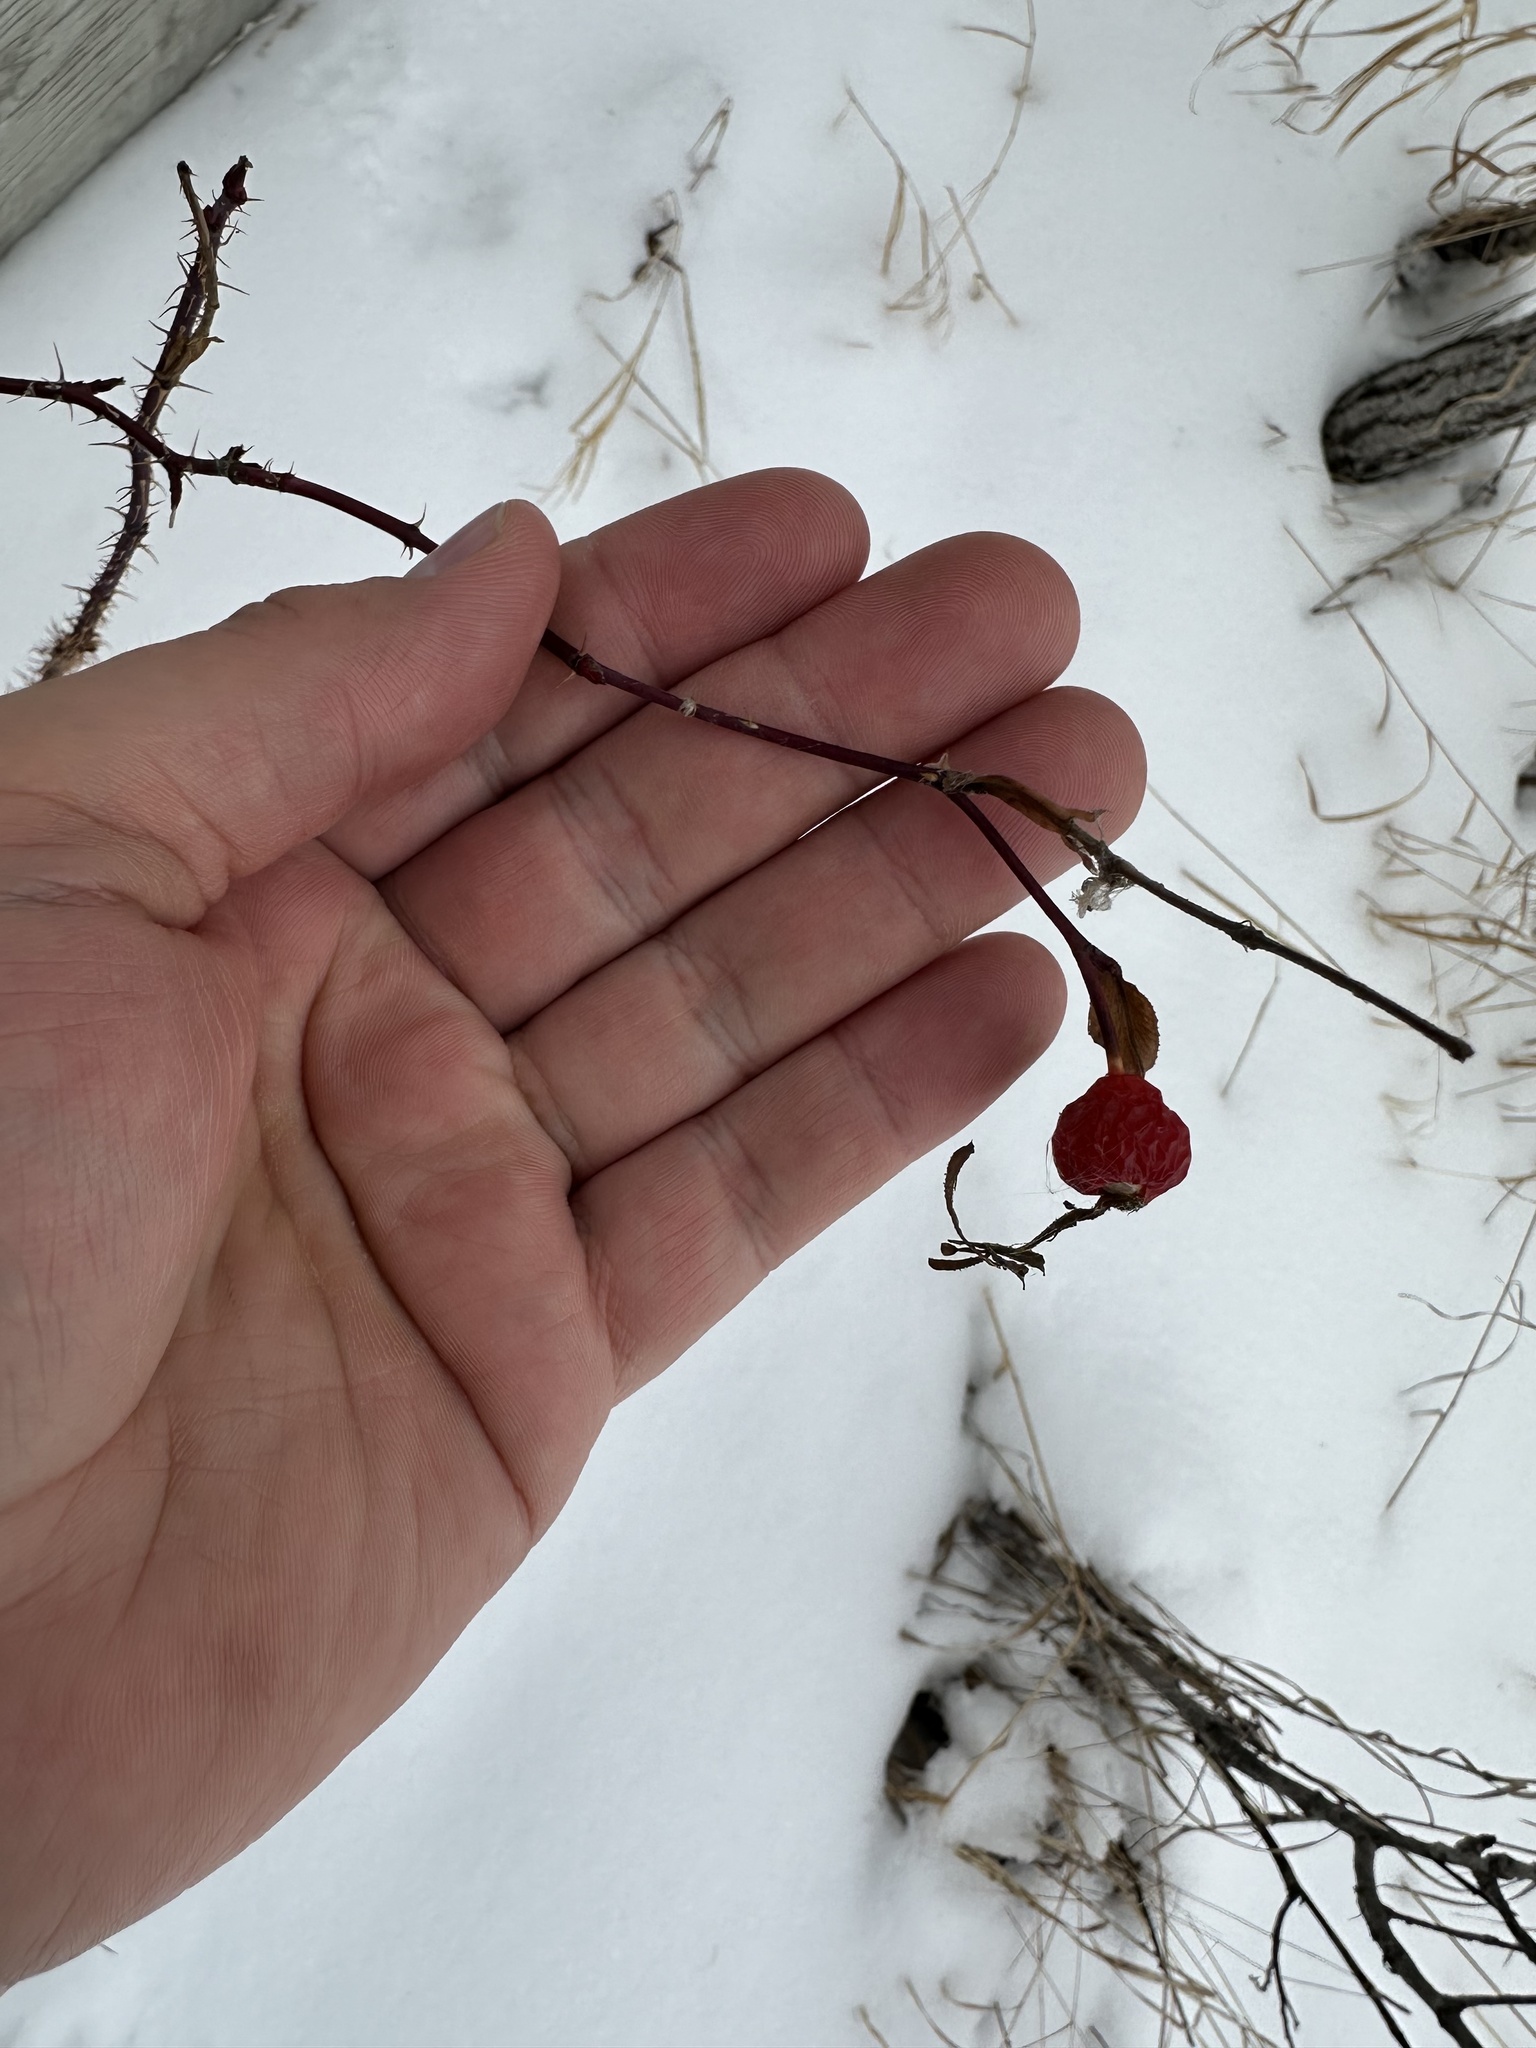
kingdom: Plantae
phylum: Tracheophyta
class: Magnoliopsida
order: Rosales
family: Rosaceae
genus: Rosa
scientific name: Rosa woodsii
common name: Woods's rose
